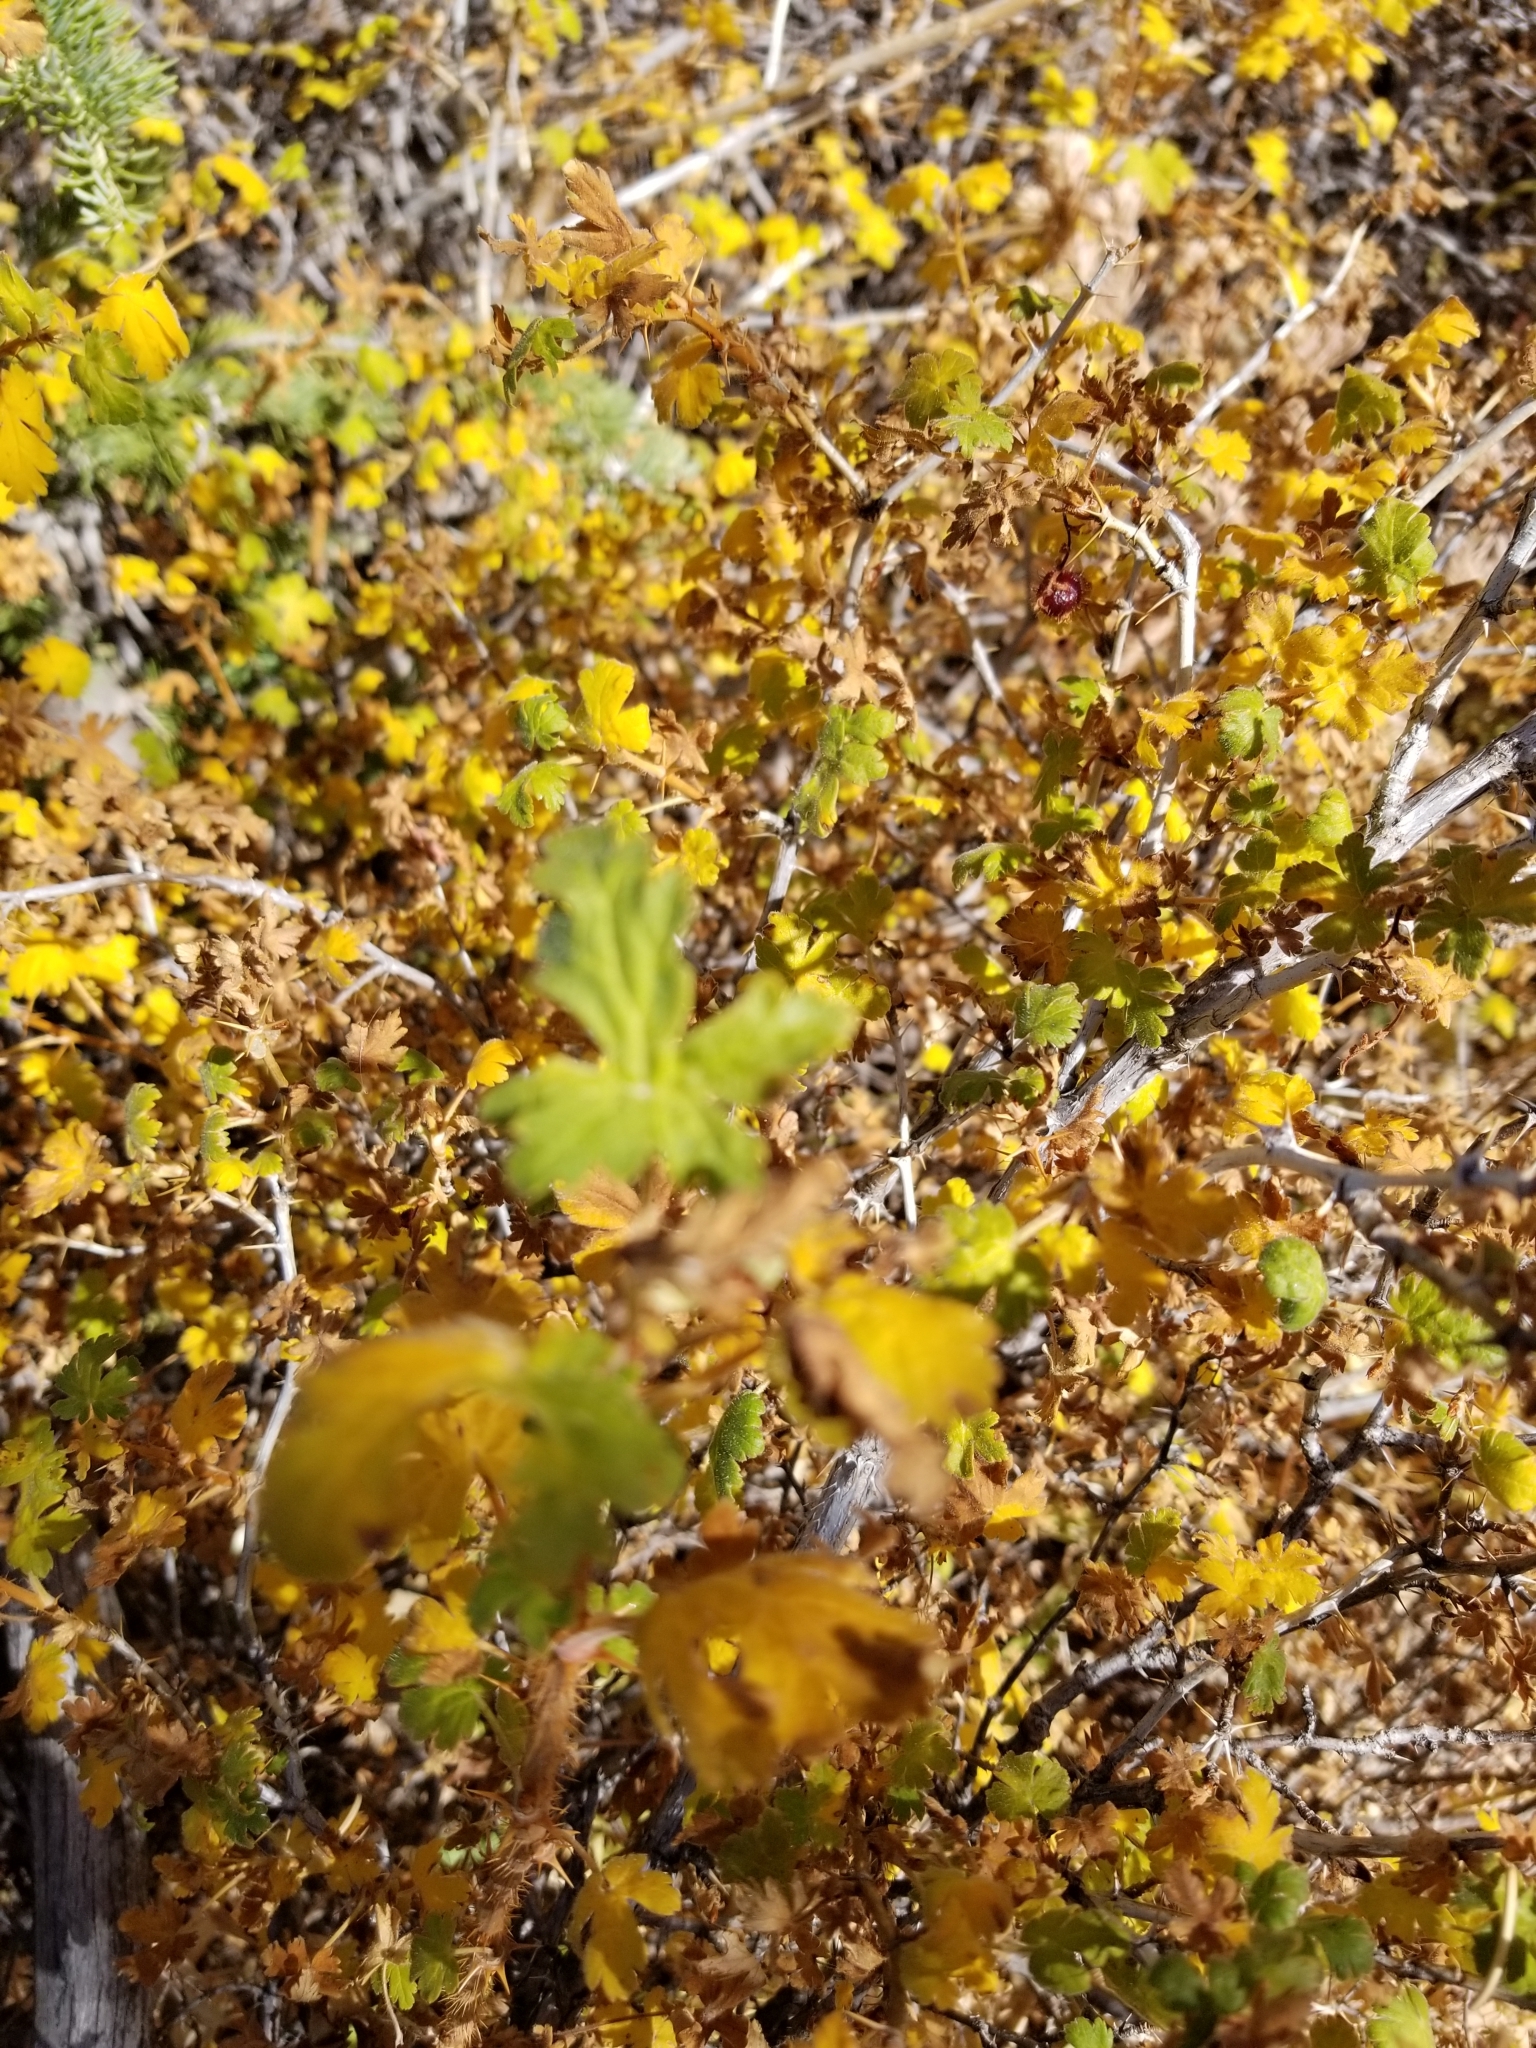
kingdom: Plantae
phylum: Tracheophyta
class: Magnoliopsida
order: Saxifragales
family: Grossulariaceae
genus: Ribes
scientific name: Ribes montigenum
